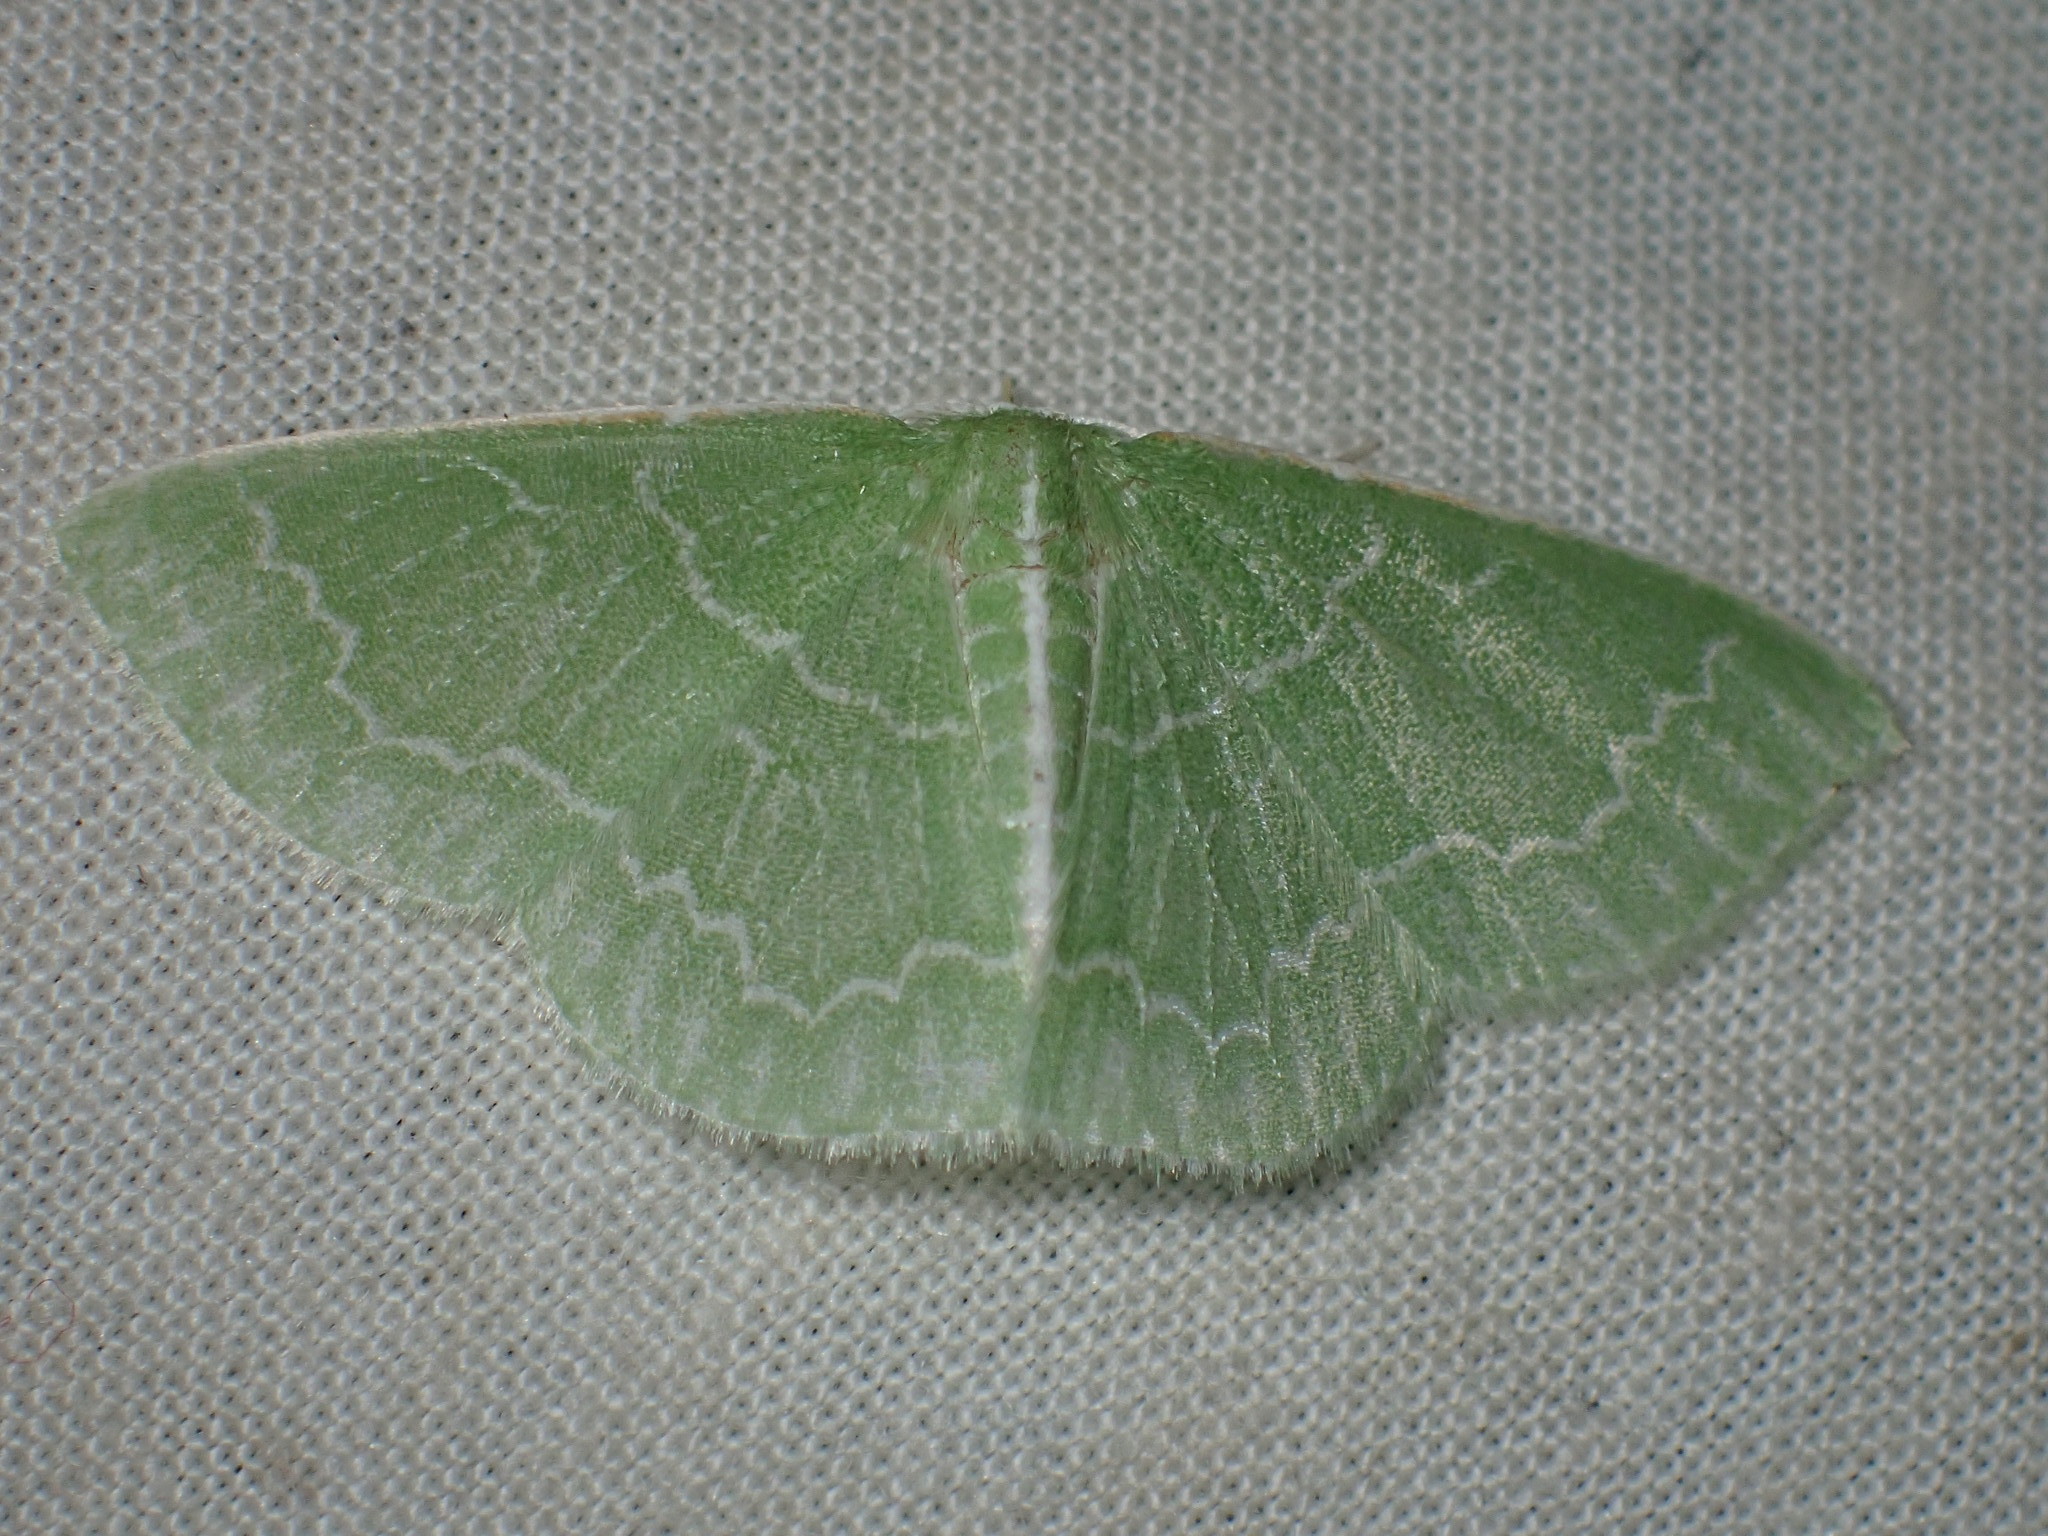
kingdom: Animalia
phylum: Arthropoda
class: Insecta
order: Lepidoptera
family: Geometridae
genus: Synchlora
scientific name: Synchlora aerata
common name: Wavy-lined emerald
